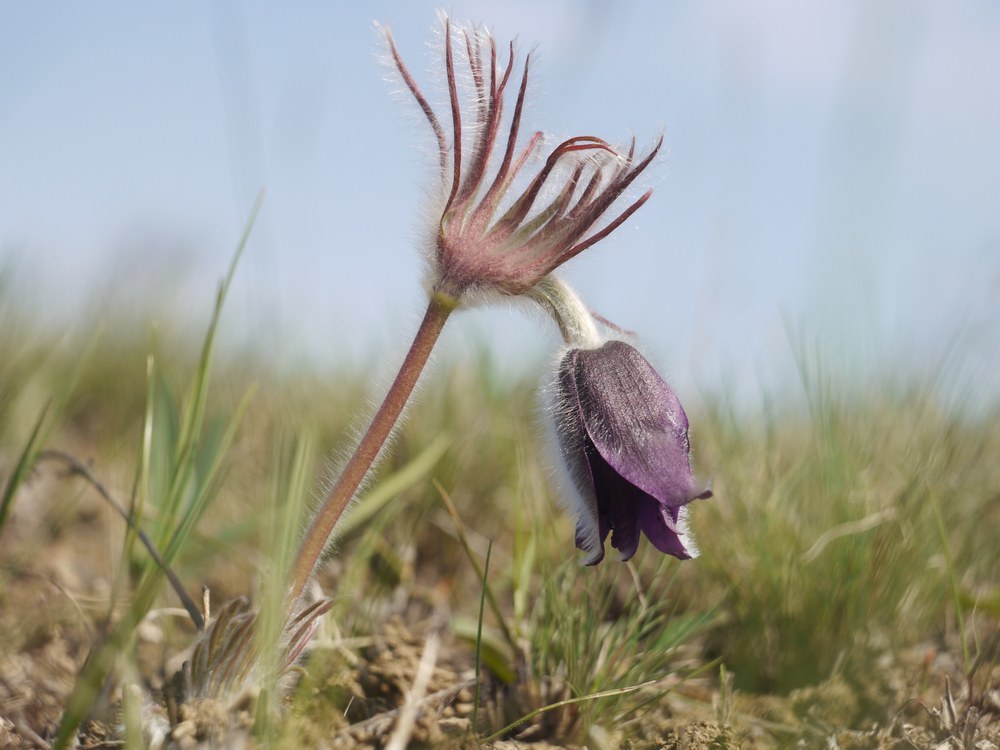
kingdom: Plantae
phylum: Tracheophyta
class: Magnoliopsida
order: Ranunculales
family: Ranunculaceae
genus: Pulsatilla
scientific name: Pulsatilla pratensis
